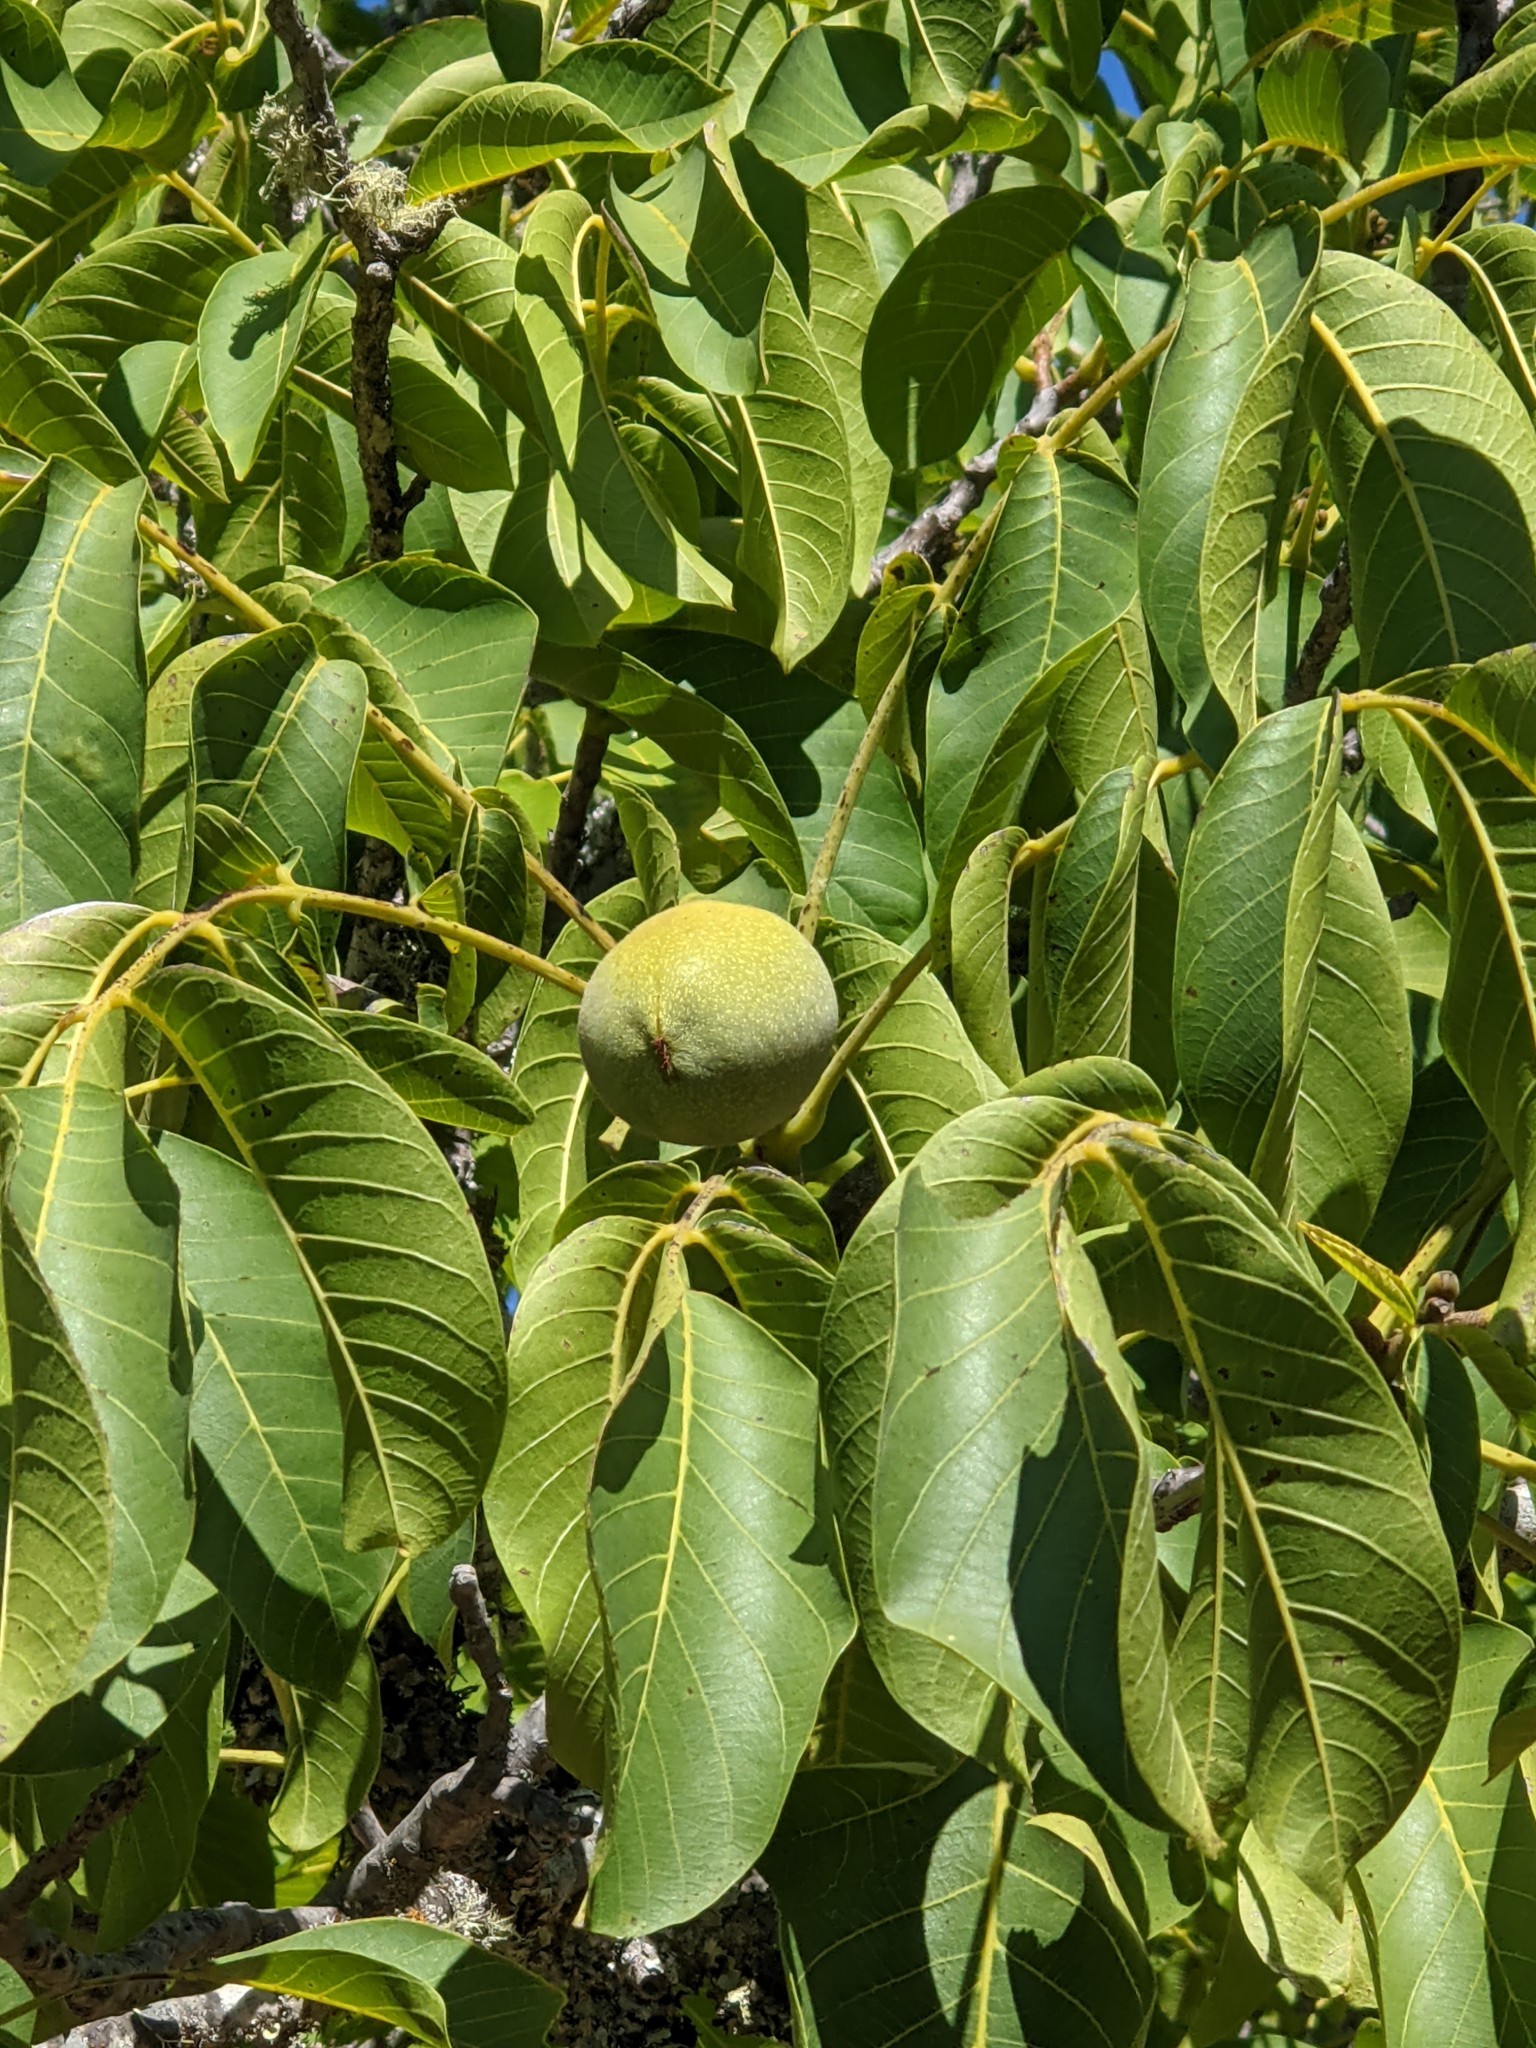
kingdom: Plantae
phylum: Tracheophyta
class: Magnoliopsida
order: Fagales
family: Juglandaceae
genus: Juglans
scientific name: Juglans regia
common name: Walnut
